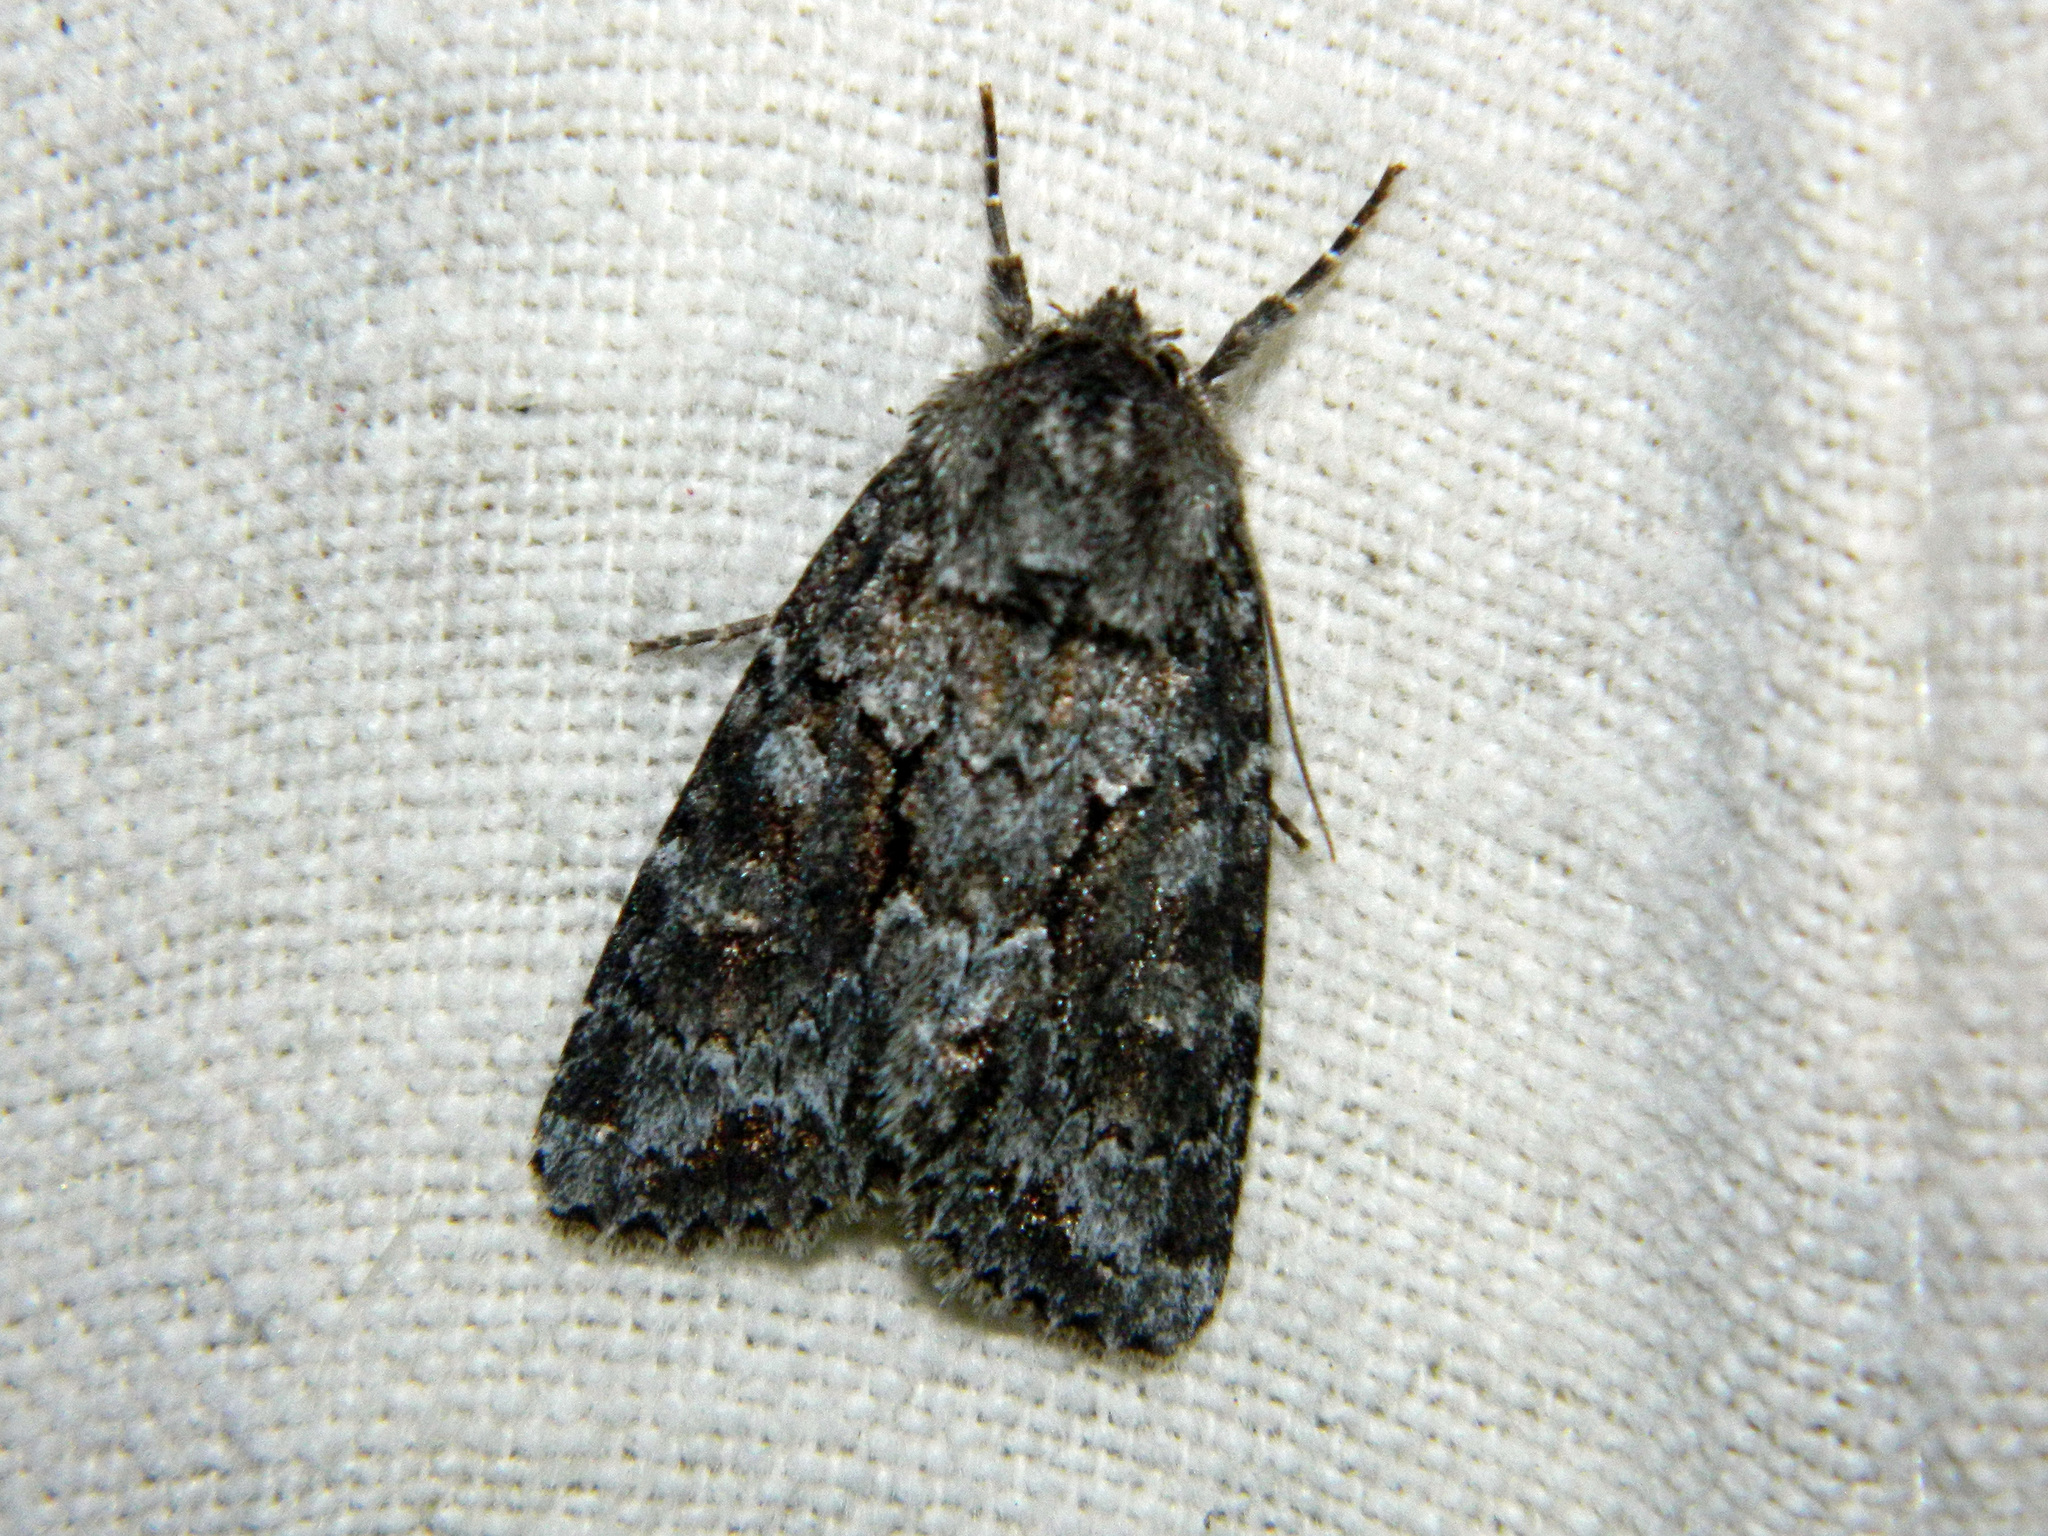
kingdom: Animalia
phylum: Arthropoda
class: Insecta
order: Lepidoptera
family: Noctuidae
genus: Sutyna
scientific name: Sutyna privata
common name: Private sallow
